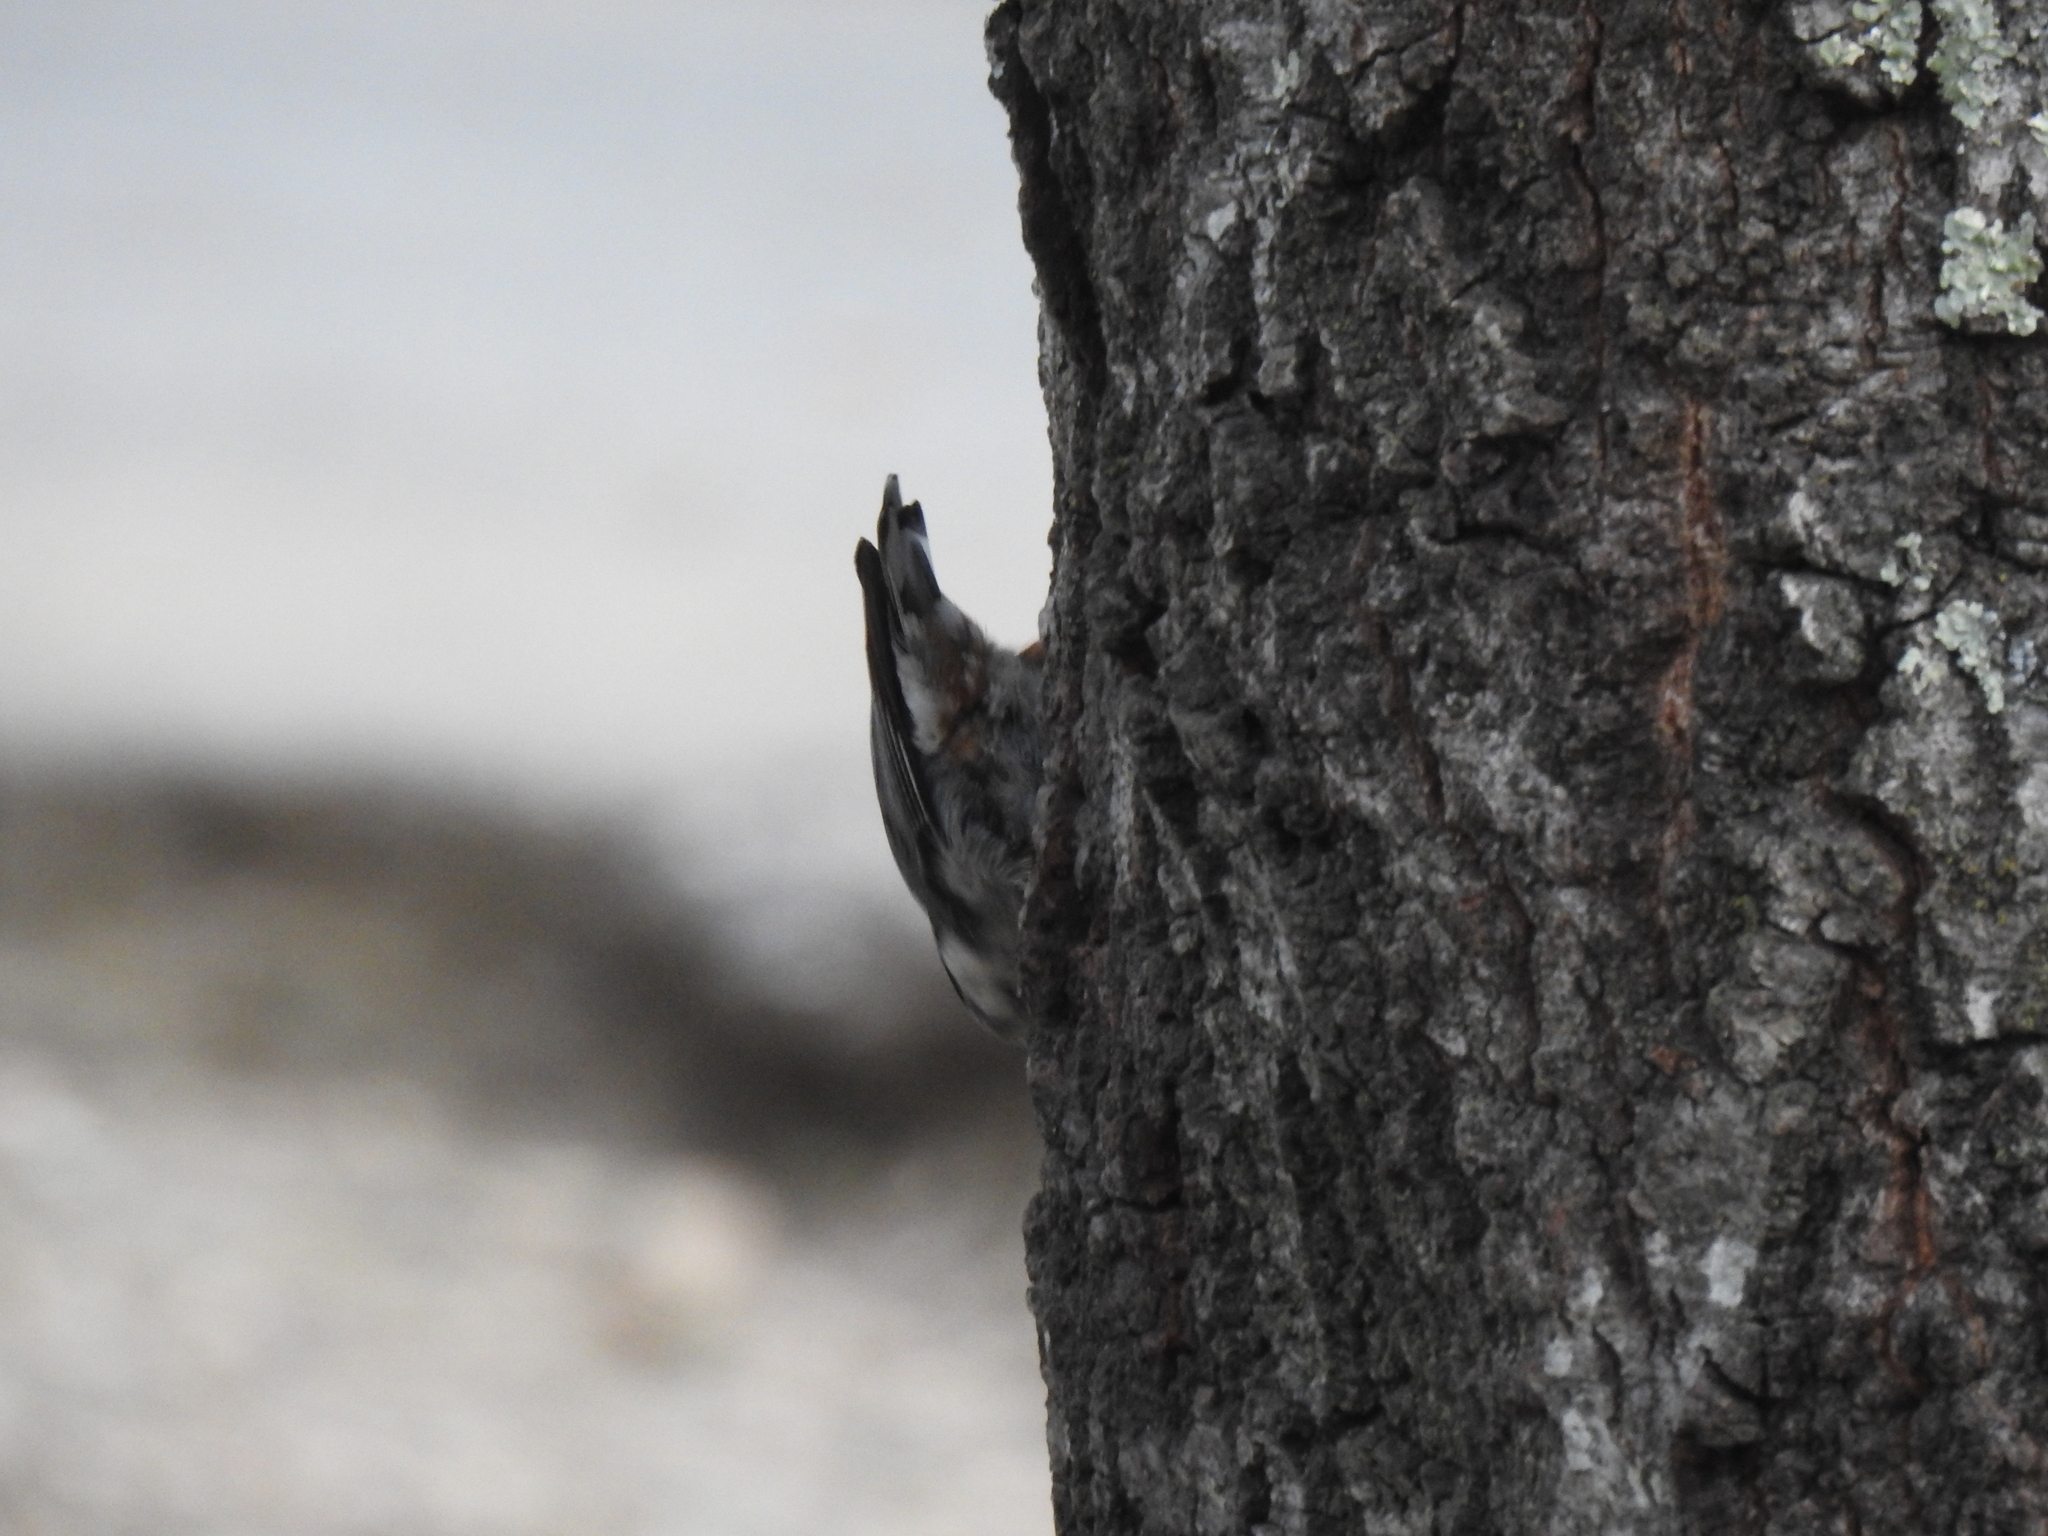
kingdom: Animalia
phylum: Chordata
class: Aves
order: Passeriformes
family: Sittidae
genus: Sitta
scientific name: Sitta carolinensis
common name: White-breasted nuthatch
